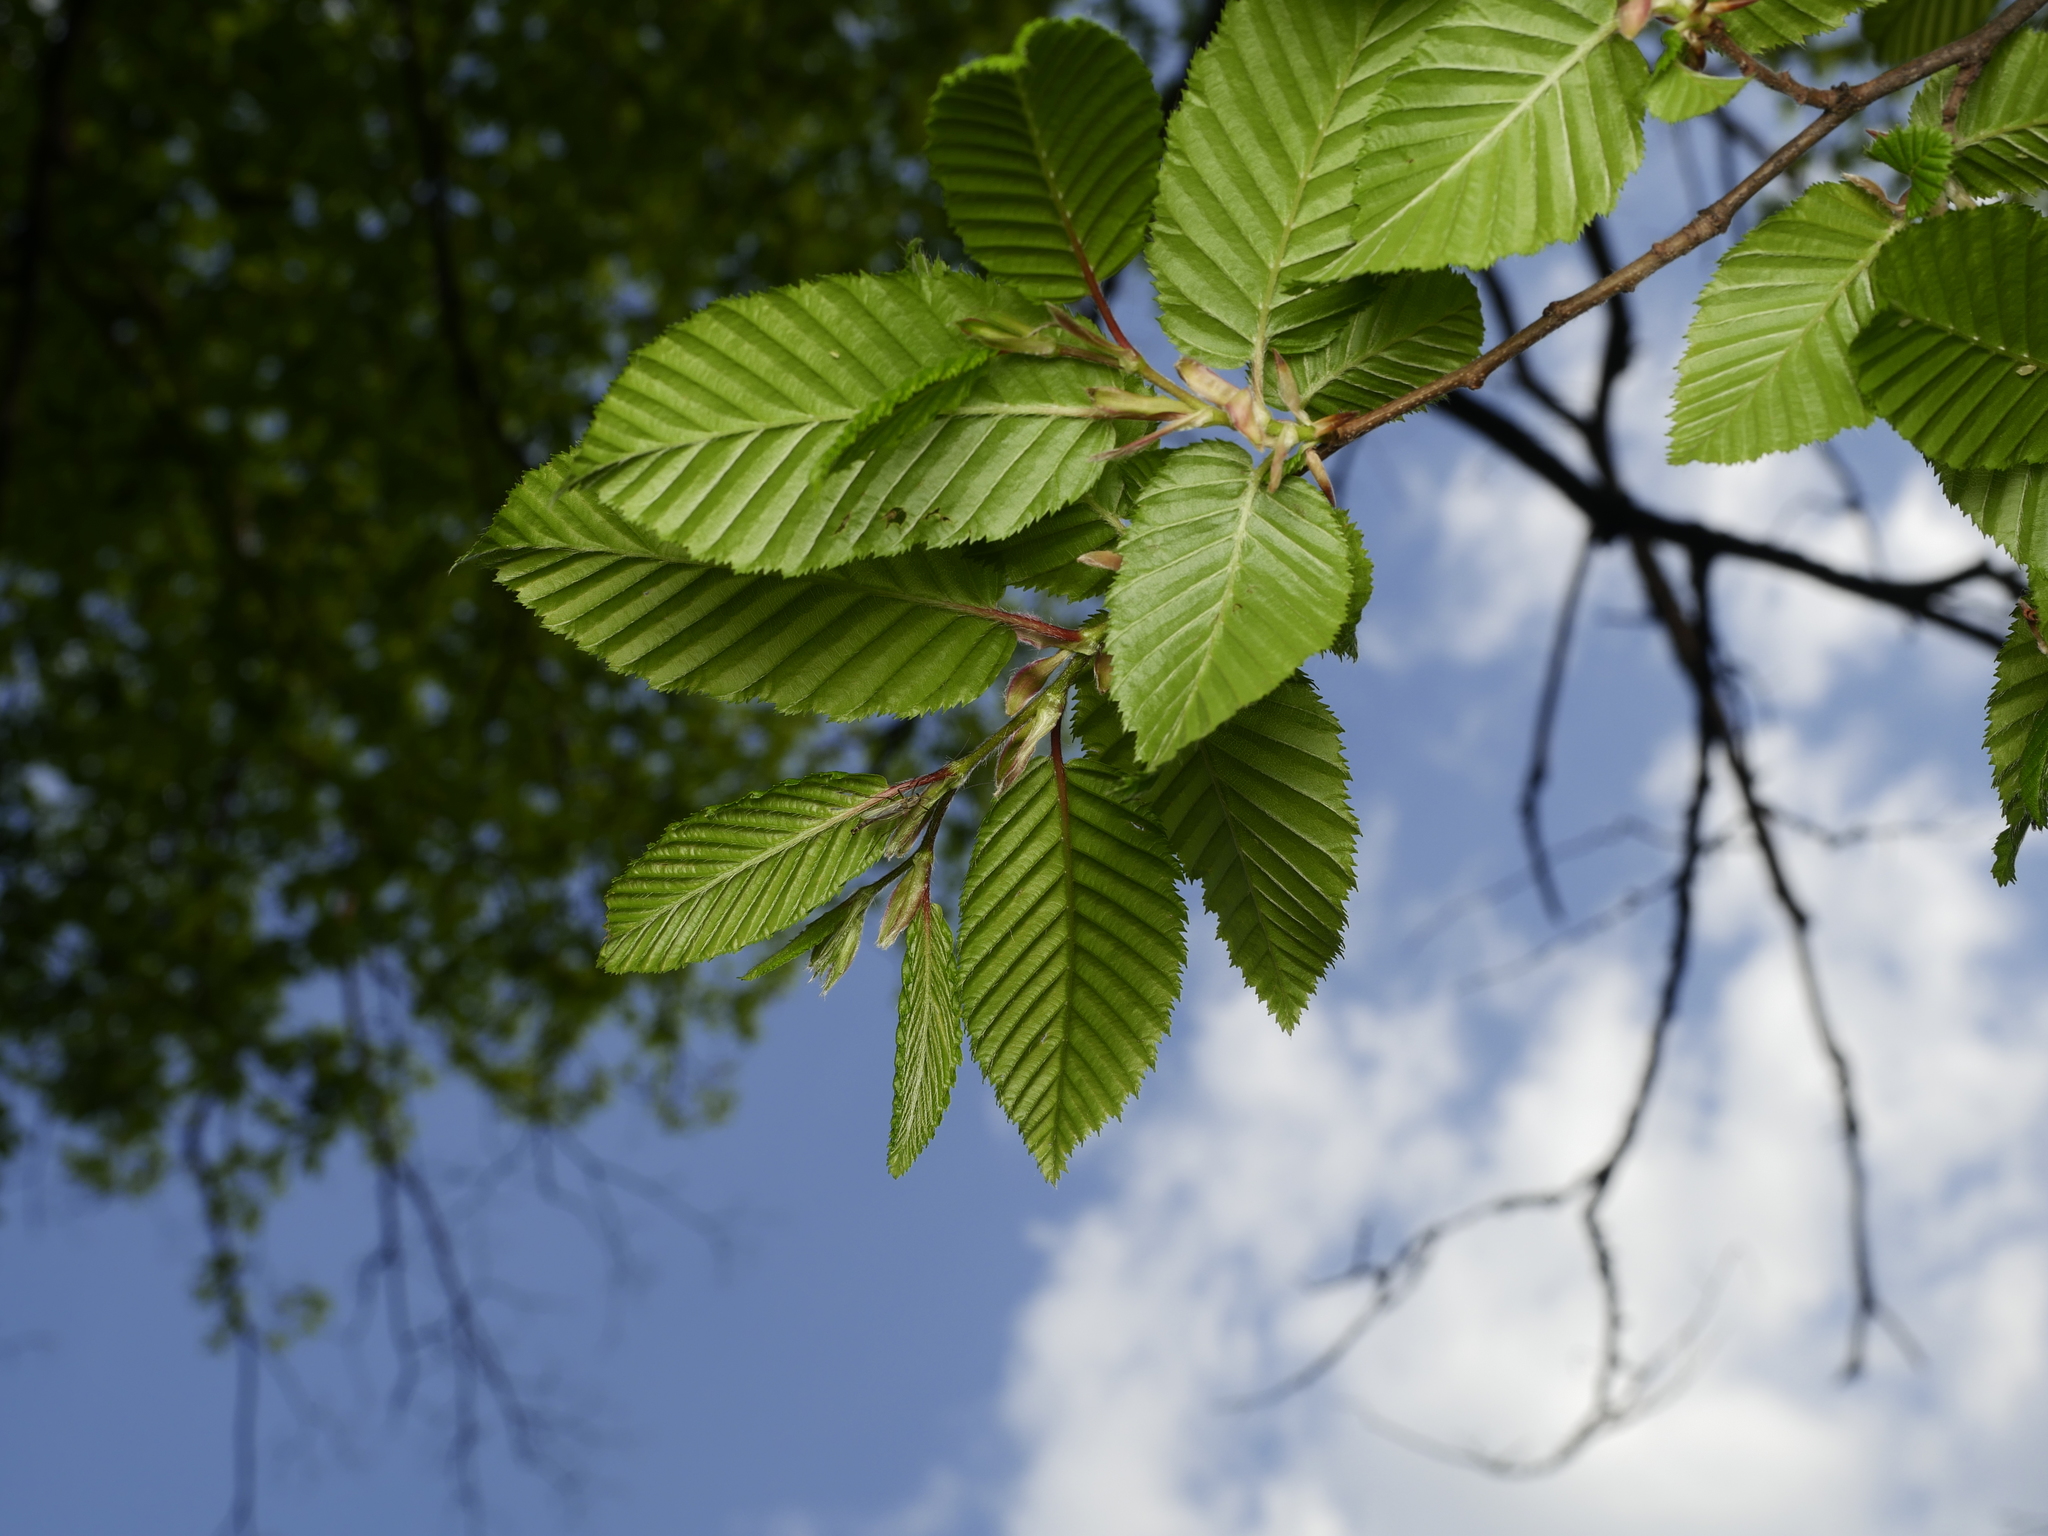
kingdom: Plantae
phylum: Tracheophyta
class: Magnoliopsida
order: Fagales
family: Betulaceae
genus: Carpinus
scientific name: Carpinus betulus
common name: Hornbeam
